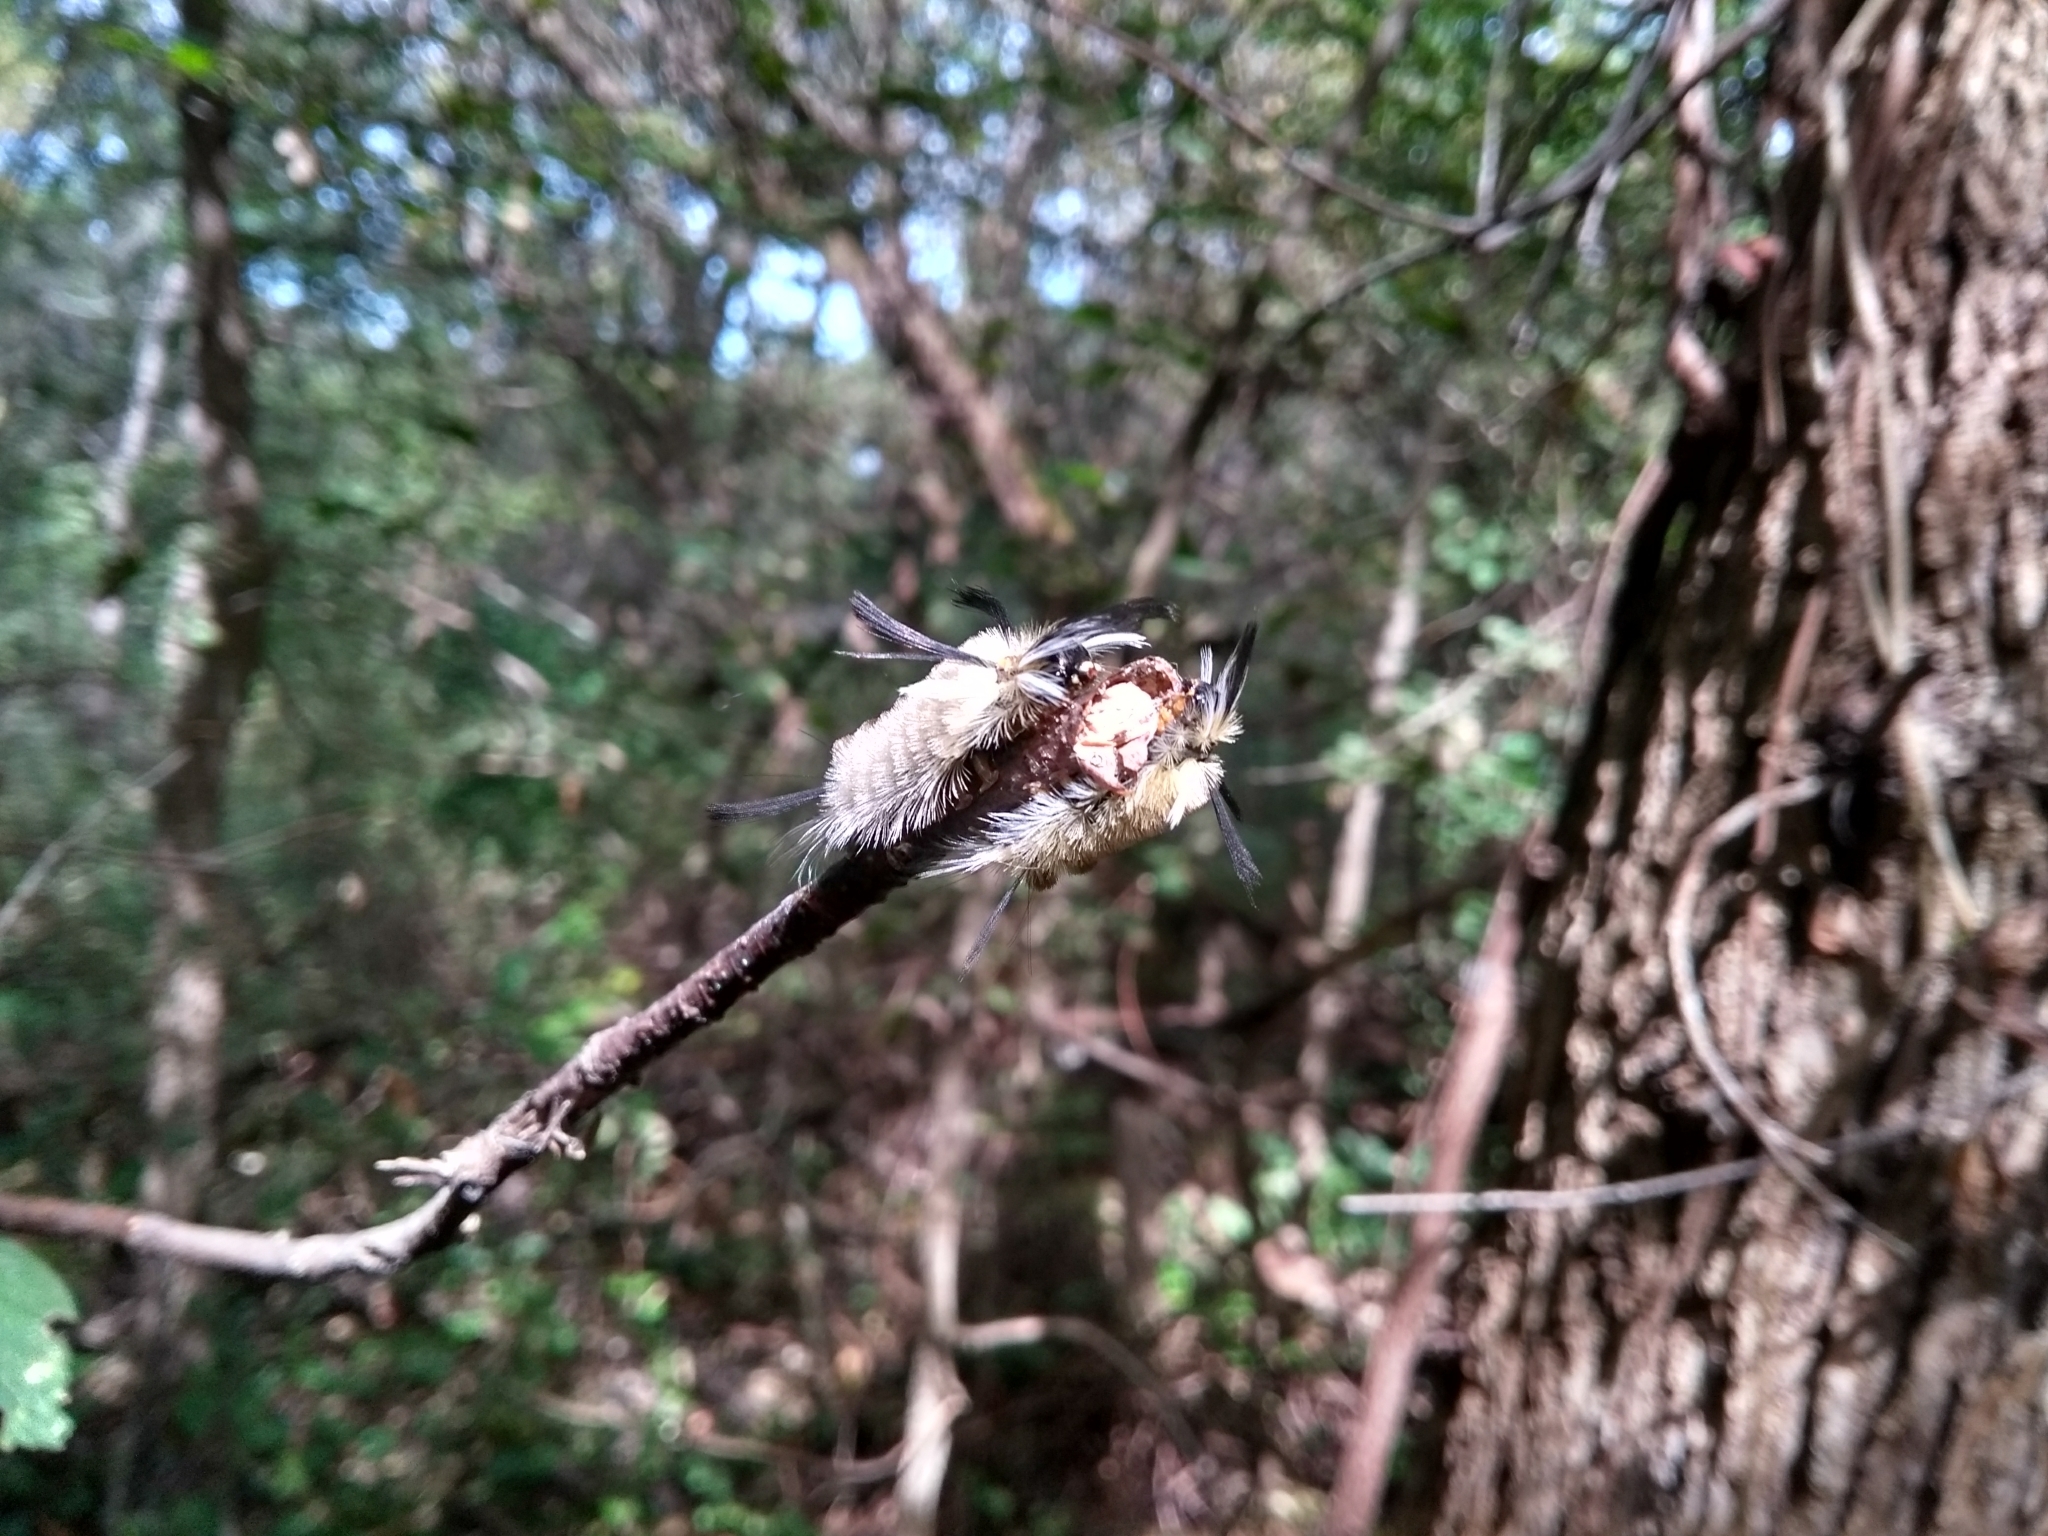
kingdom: Animalia
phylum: Arthropoda
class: Insecta
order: Lepidoptera
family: Erebidae
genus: Halysidota
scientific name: Halysidota tessellaris
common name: Banded tussock moth
